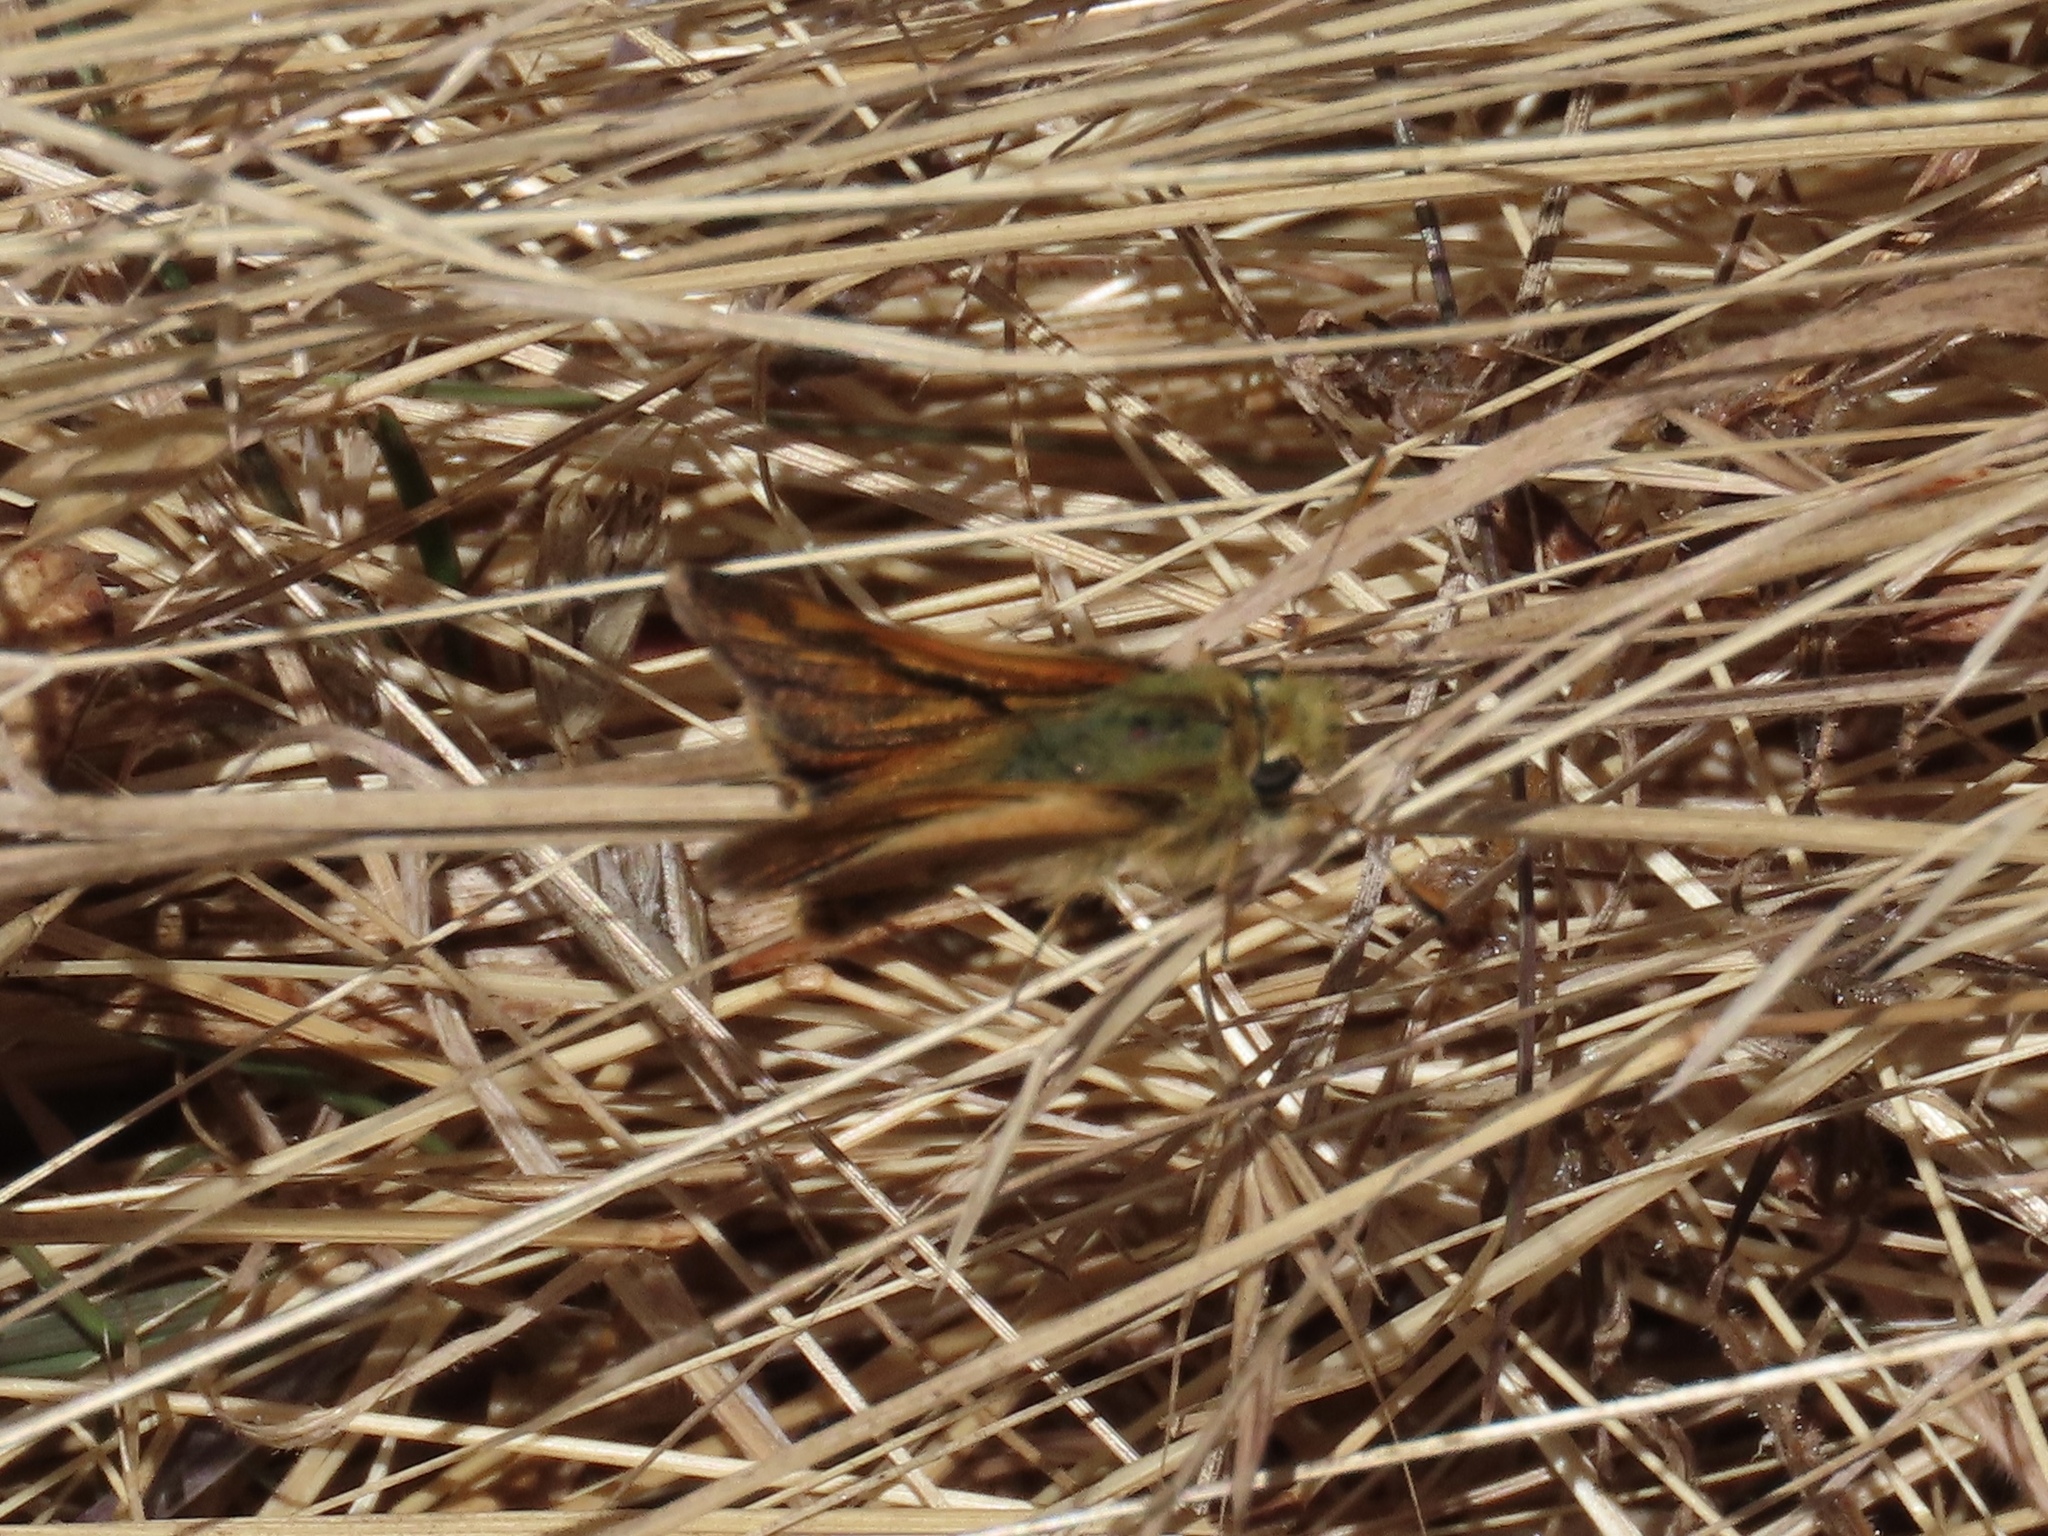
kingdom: Animalia
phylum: Arthropoda
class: Insecta
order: Lepidoptera
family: Hesperiidae
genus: Ochlodes
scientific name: Ochlodes sylvanoides
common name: Woodland skipper
